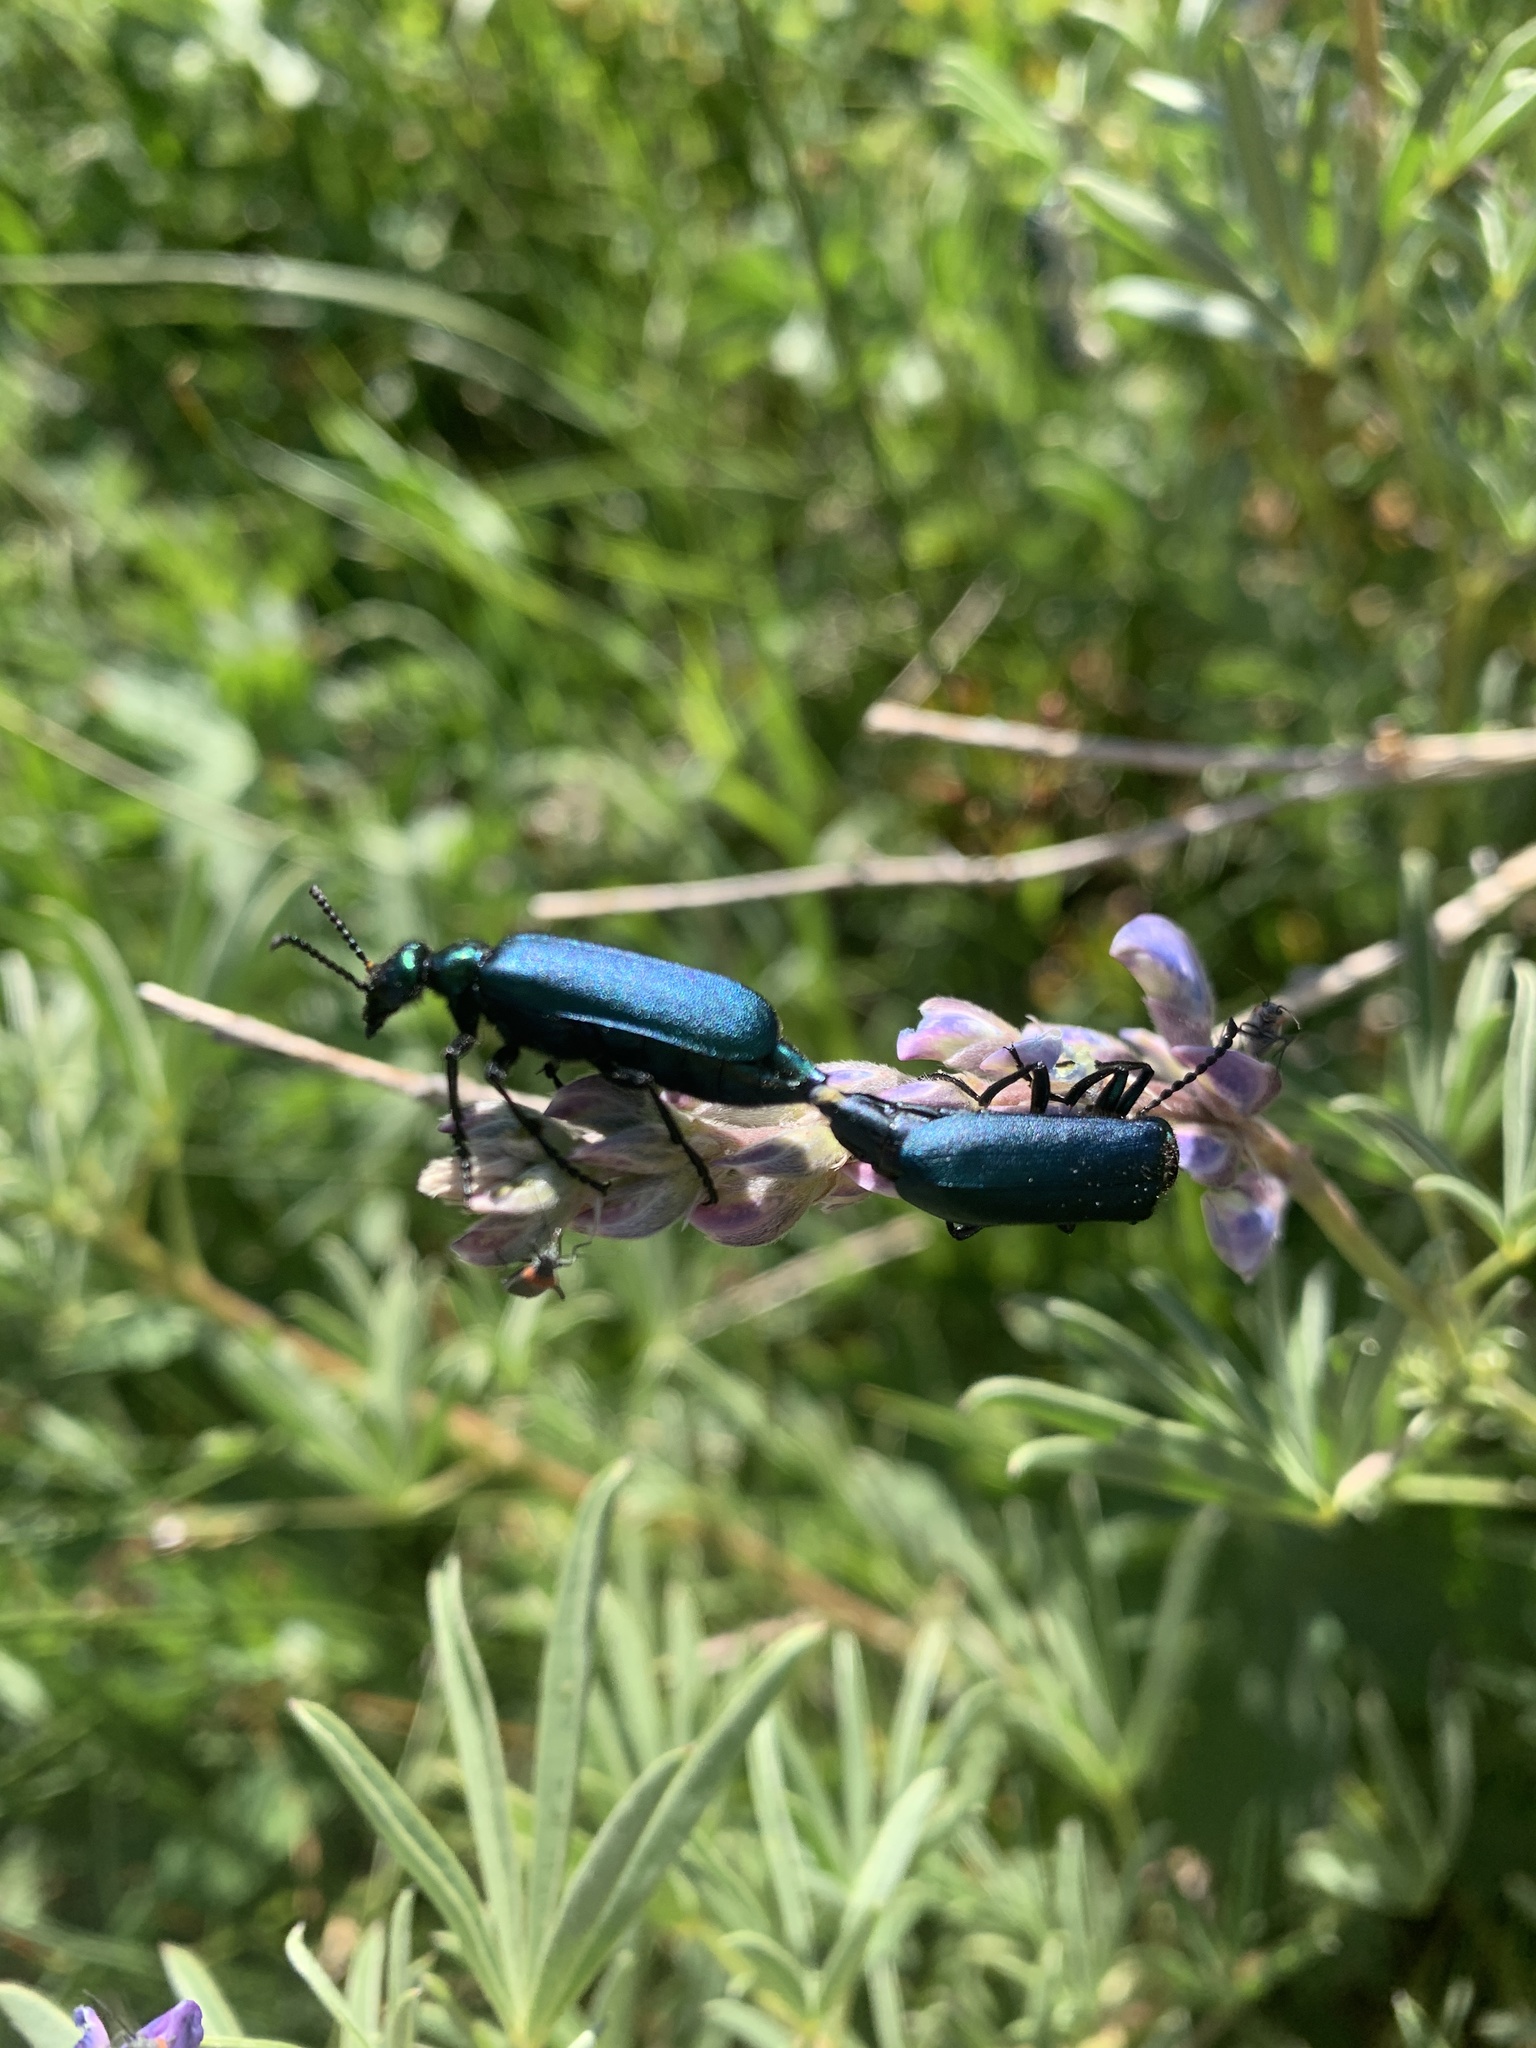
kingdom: Animalia
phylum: Arthropoda
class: Insecta
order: Coleoptera
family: Meloidae
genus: Lytta
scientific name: Lytta nuttallii
